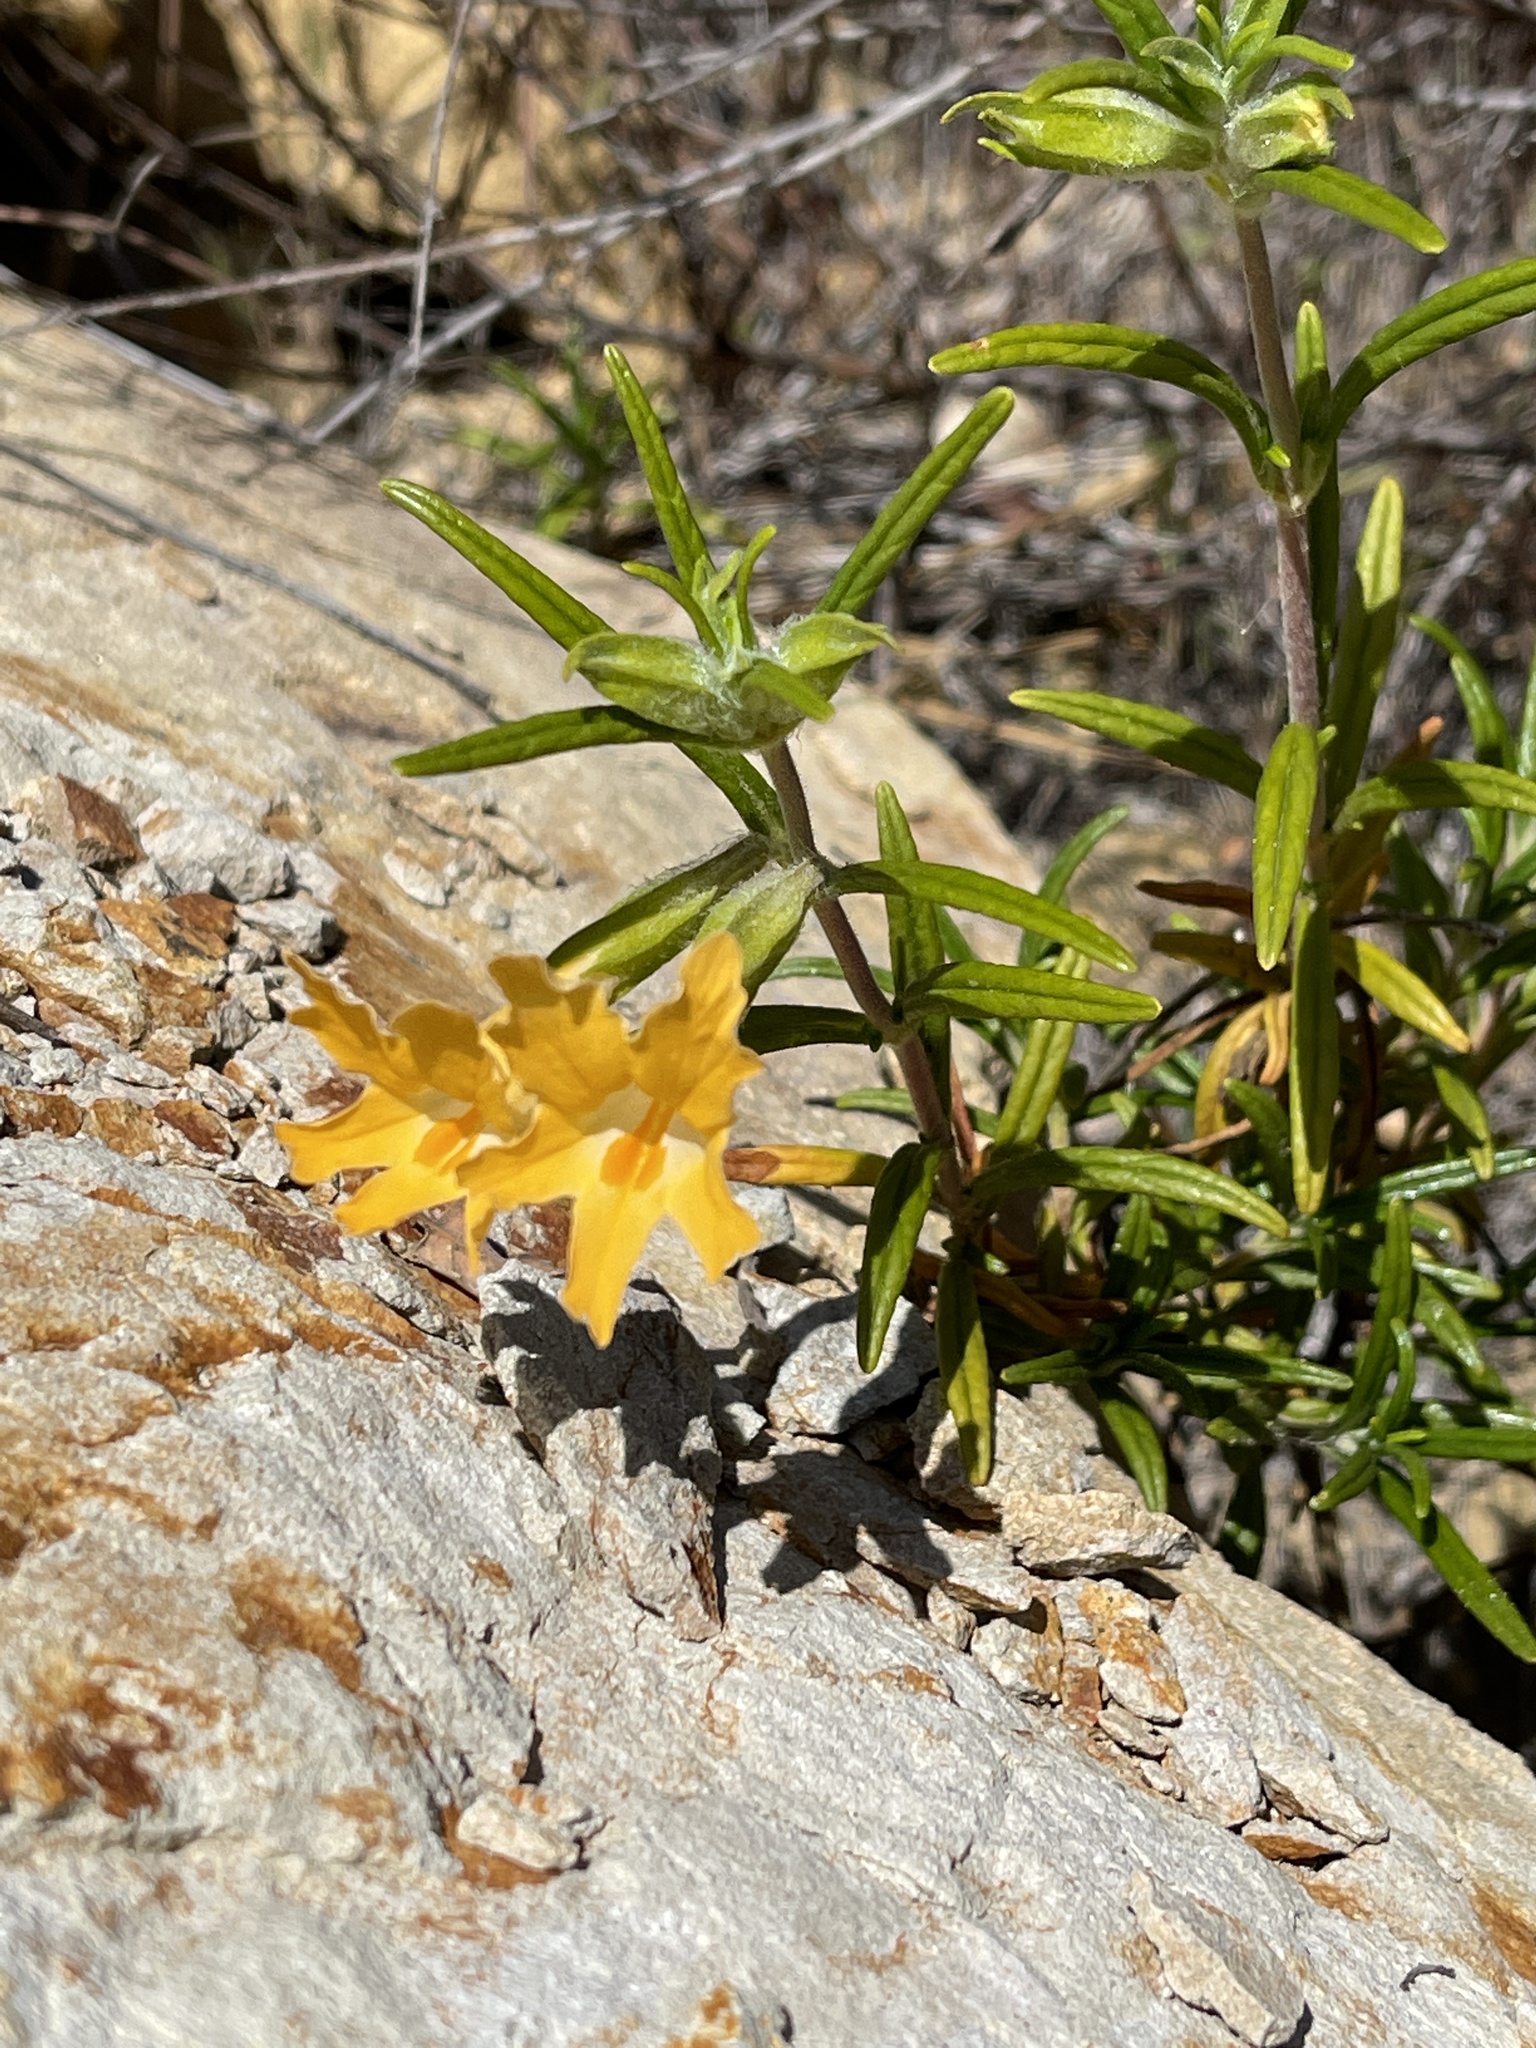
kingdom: Plantae
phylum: Tracheophyta
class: Magnoliopsida
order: Lamiales
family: Phrymaceae
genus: Diplacus
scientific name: Diplacus longiflorus
